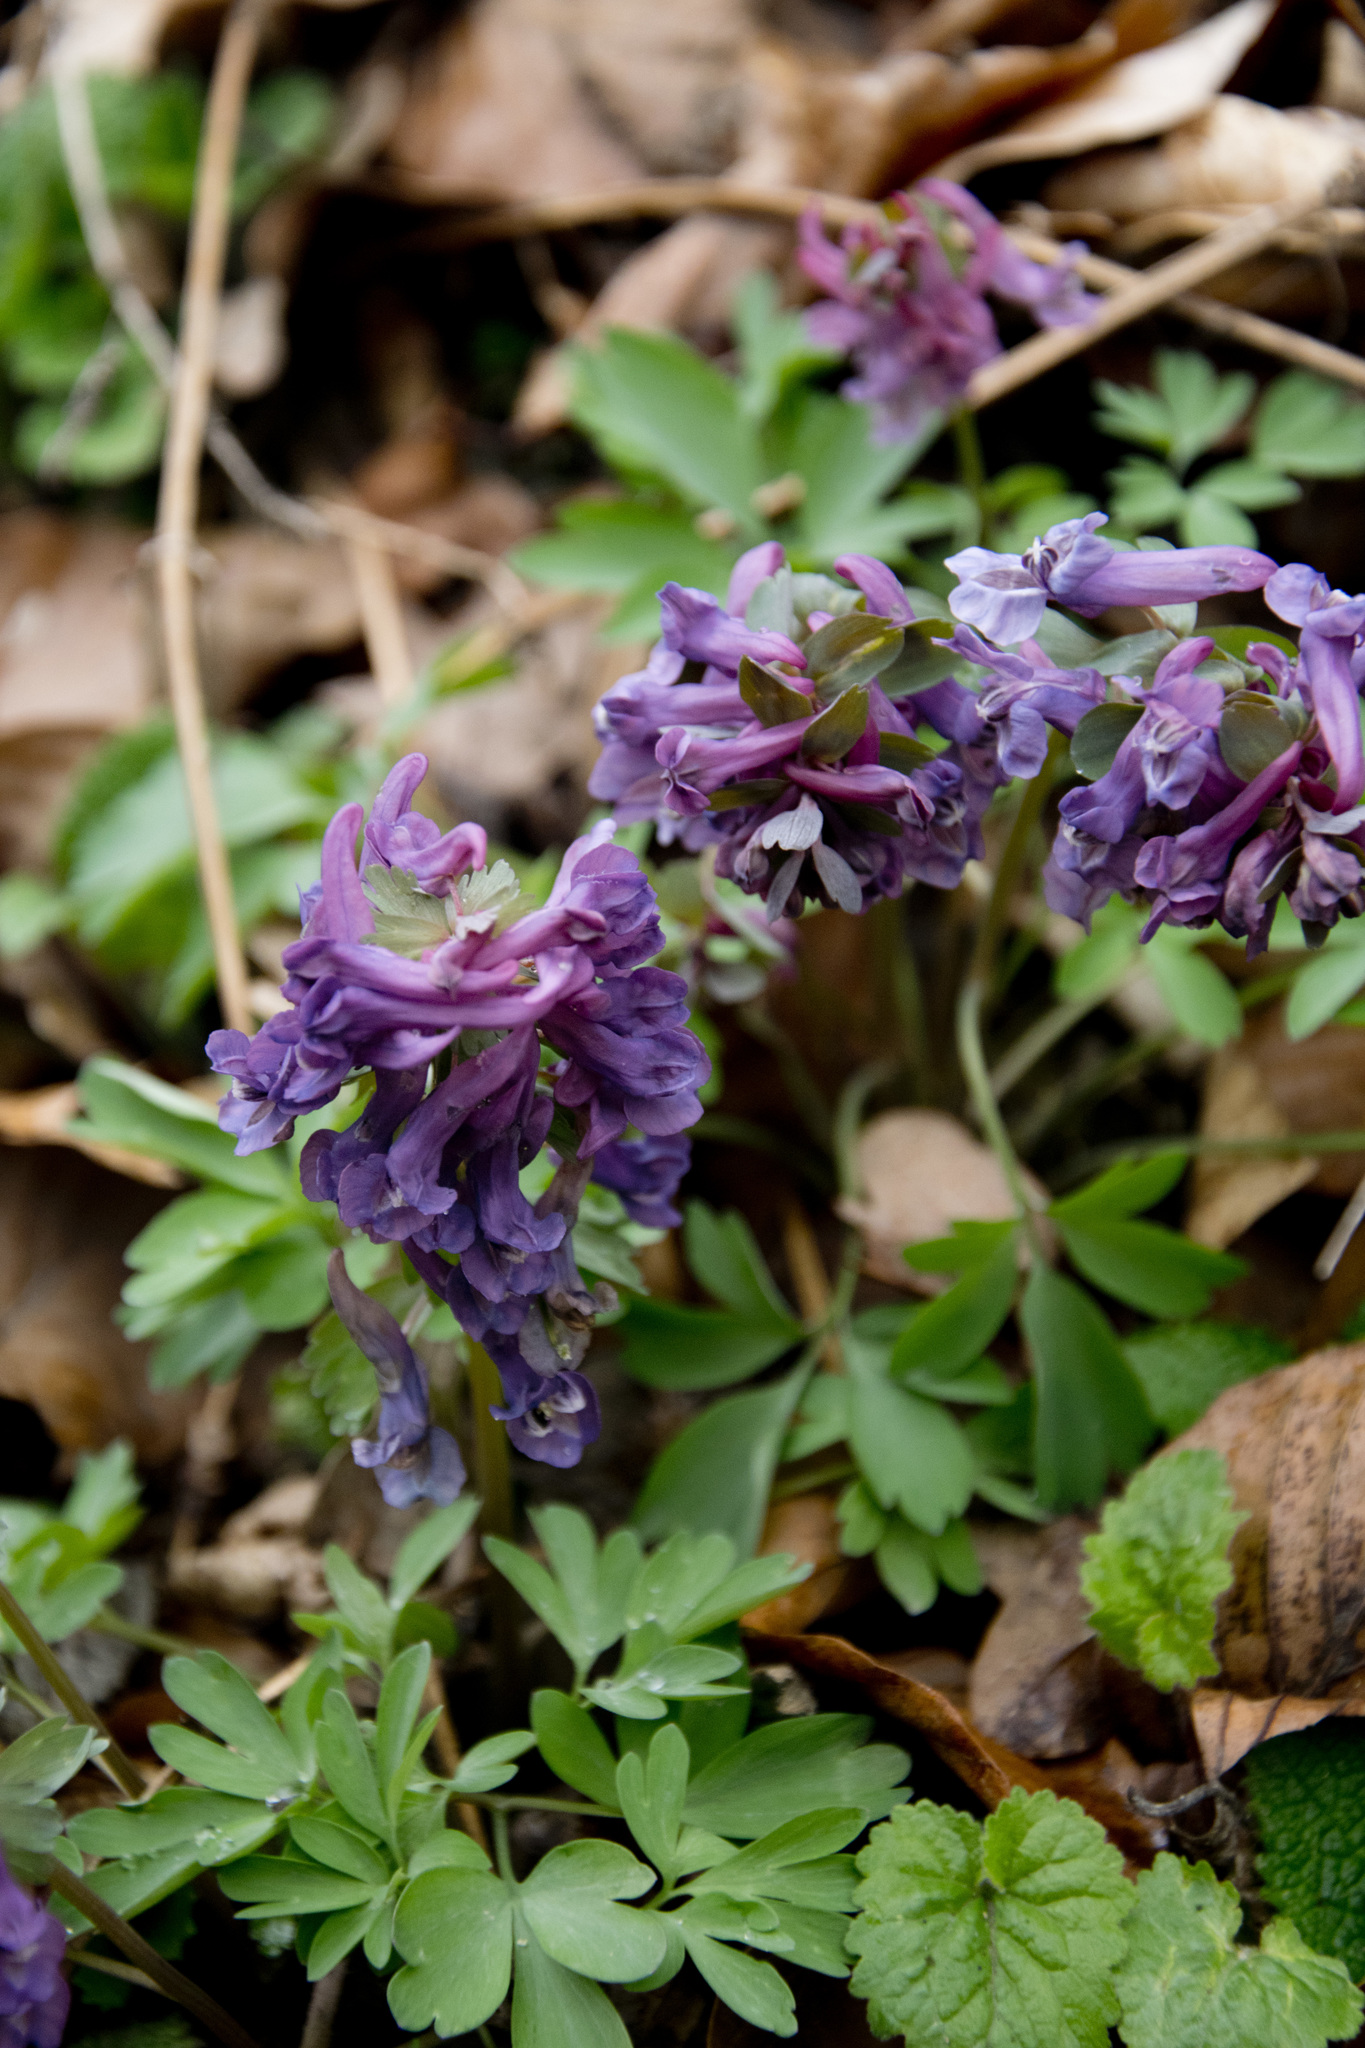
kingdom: Plantae
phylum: Tracheophyta
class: Magnoliopsida
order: Ranunculales
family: Papaveraceae
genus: Corydalis
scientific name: Corydalis solida
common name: Bird-in-a-bush
